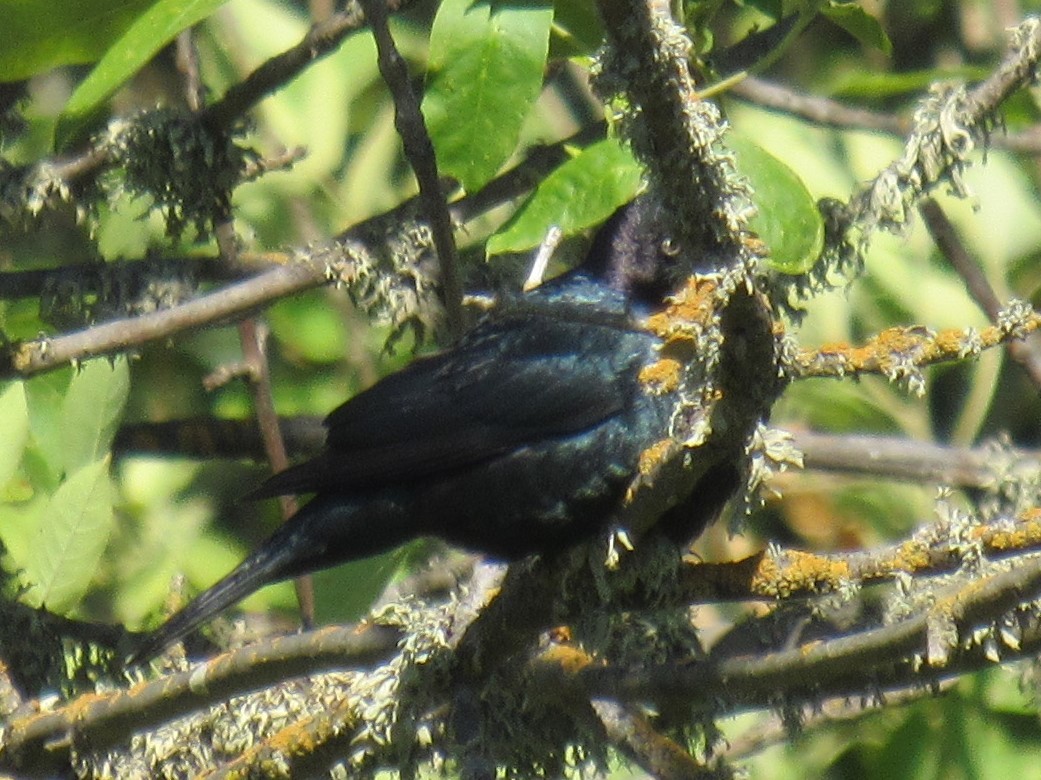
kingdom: Animalia
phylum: Chordata
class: Aves
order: Passeriformes
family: Icteridae
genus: Euphagus
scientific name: Euphagus cyanocephalus
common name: Brewer's blackbird
